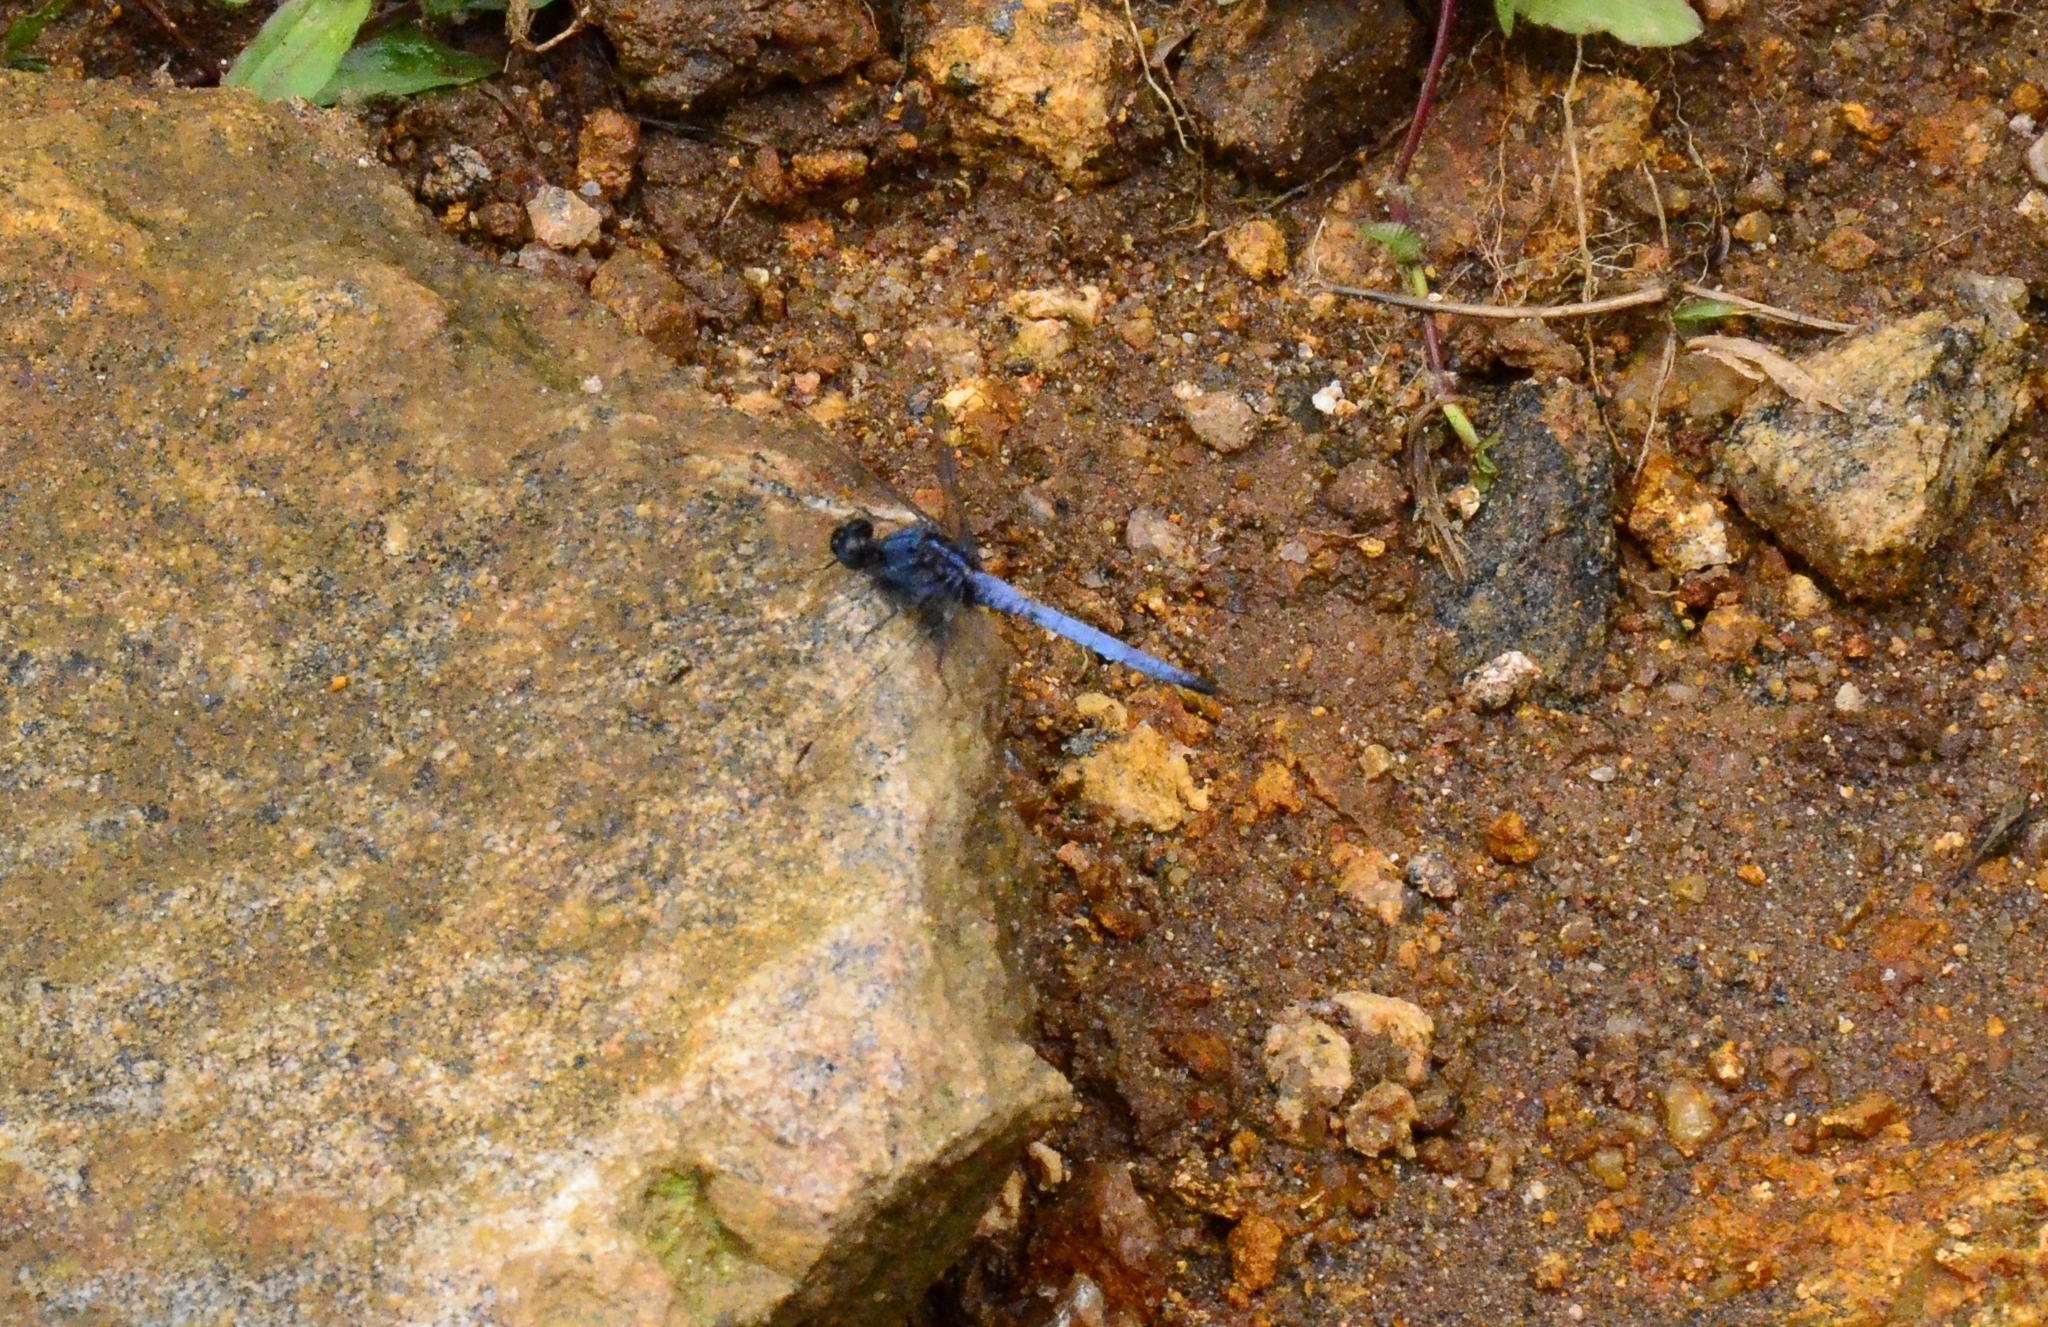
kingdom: Animalia
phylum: Arthropoda
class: Insecta
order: Odonata
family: Libellulidae
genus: Orthetrum
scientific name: Orthetrum glaucum
